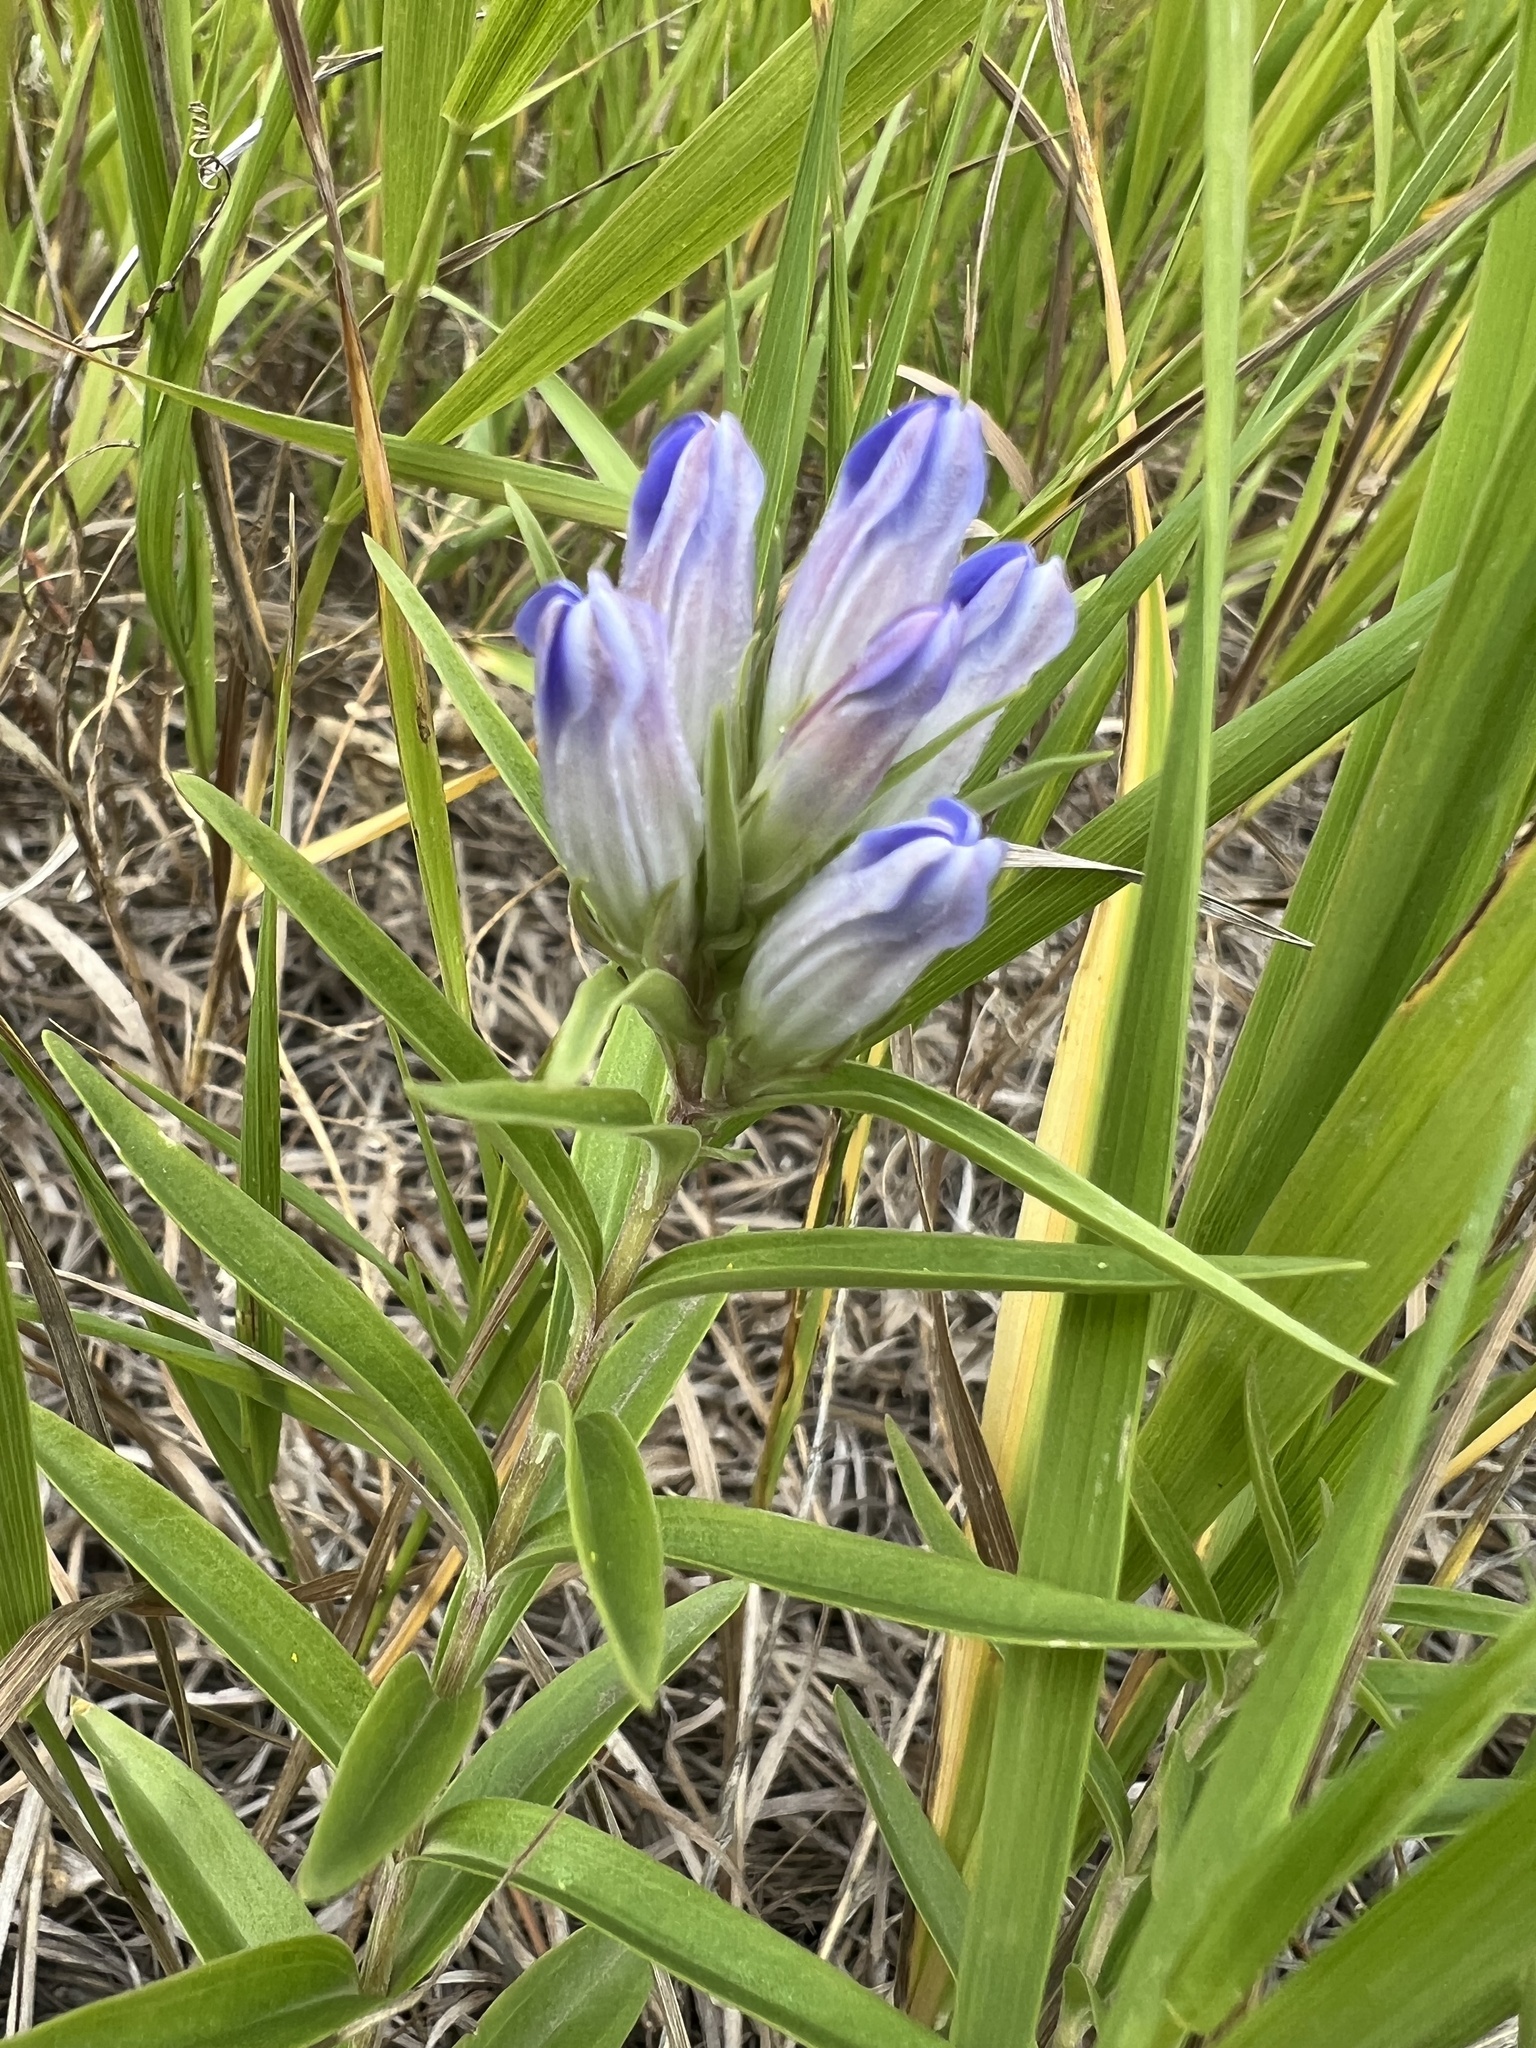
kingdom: Plantae
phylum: Tracheophyta
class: Magnoliopsida
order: Gentianales
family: Gentianaceae
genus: Gentiana
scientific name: Gentiana affinis
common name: Rocky mountain gentian
